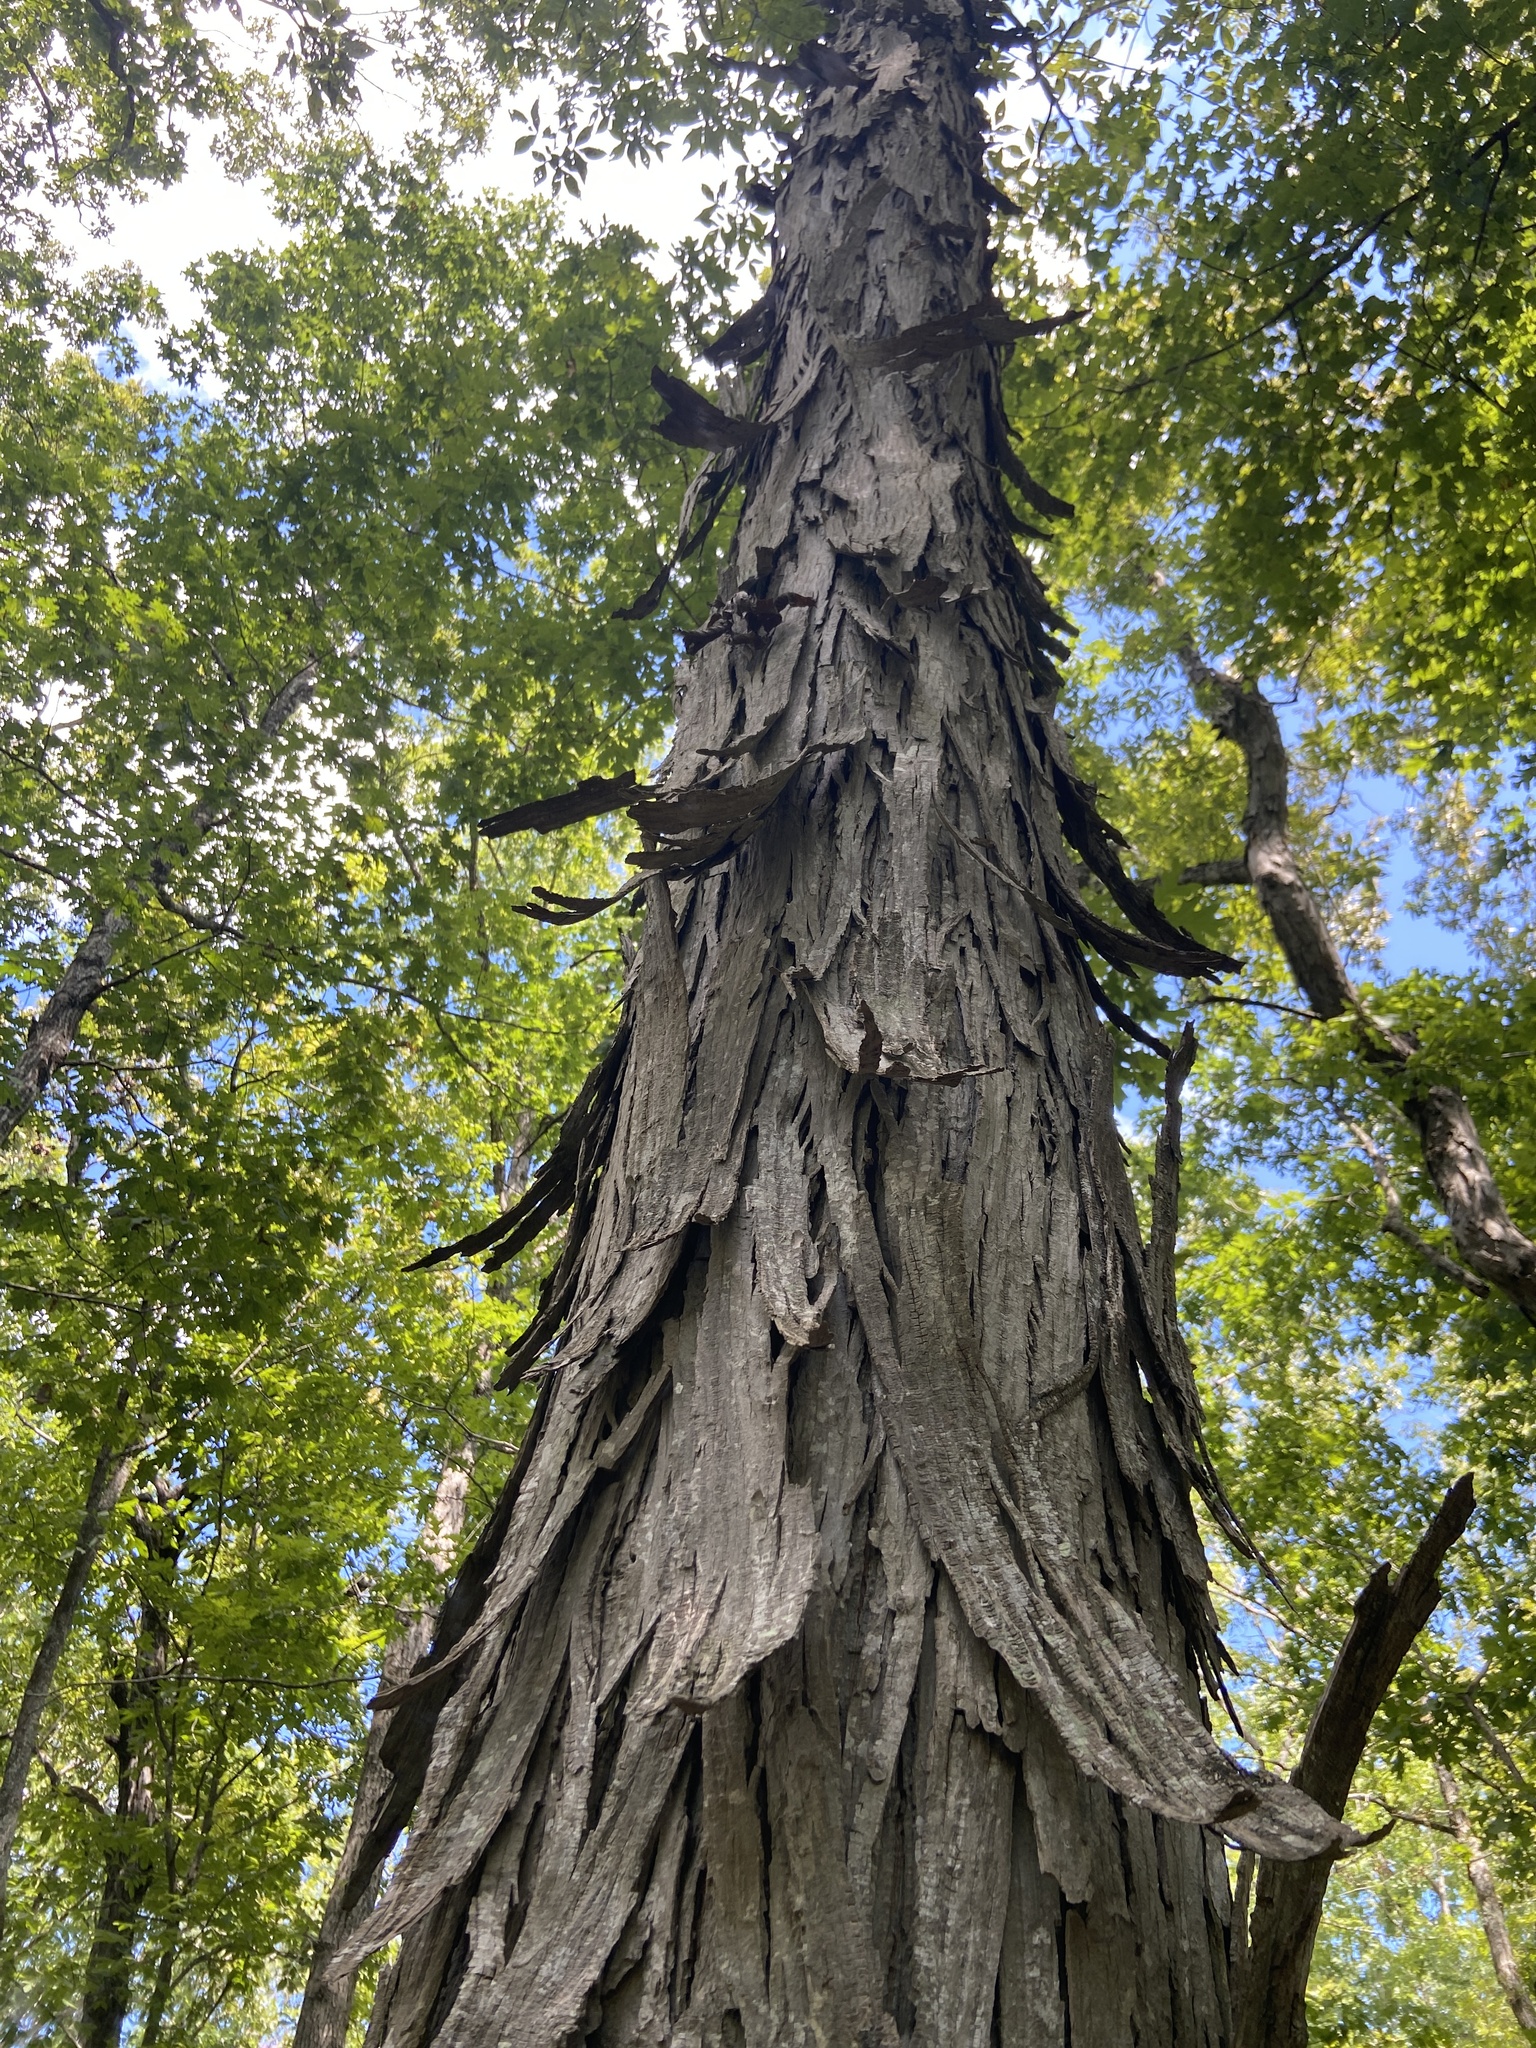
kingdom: Plantae
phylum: Tracheophyta
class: Magnoliopsida
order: Fagales
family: Juglandaceae
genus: Carya
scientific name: Carya carolinae-septentrionalis
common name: Carolina hickory
